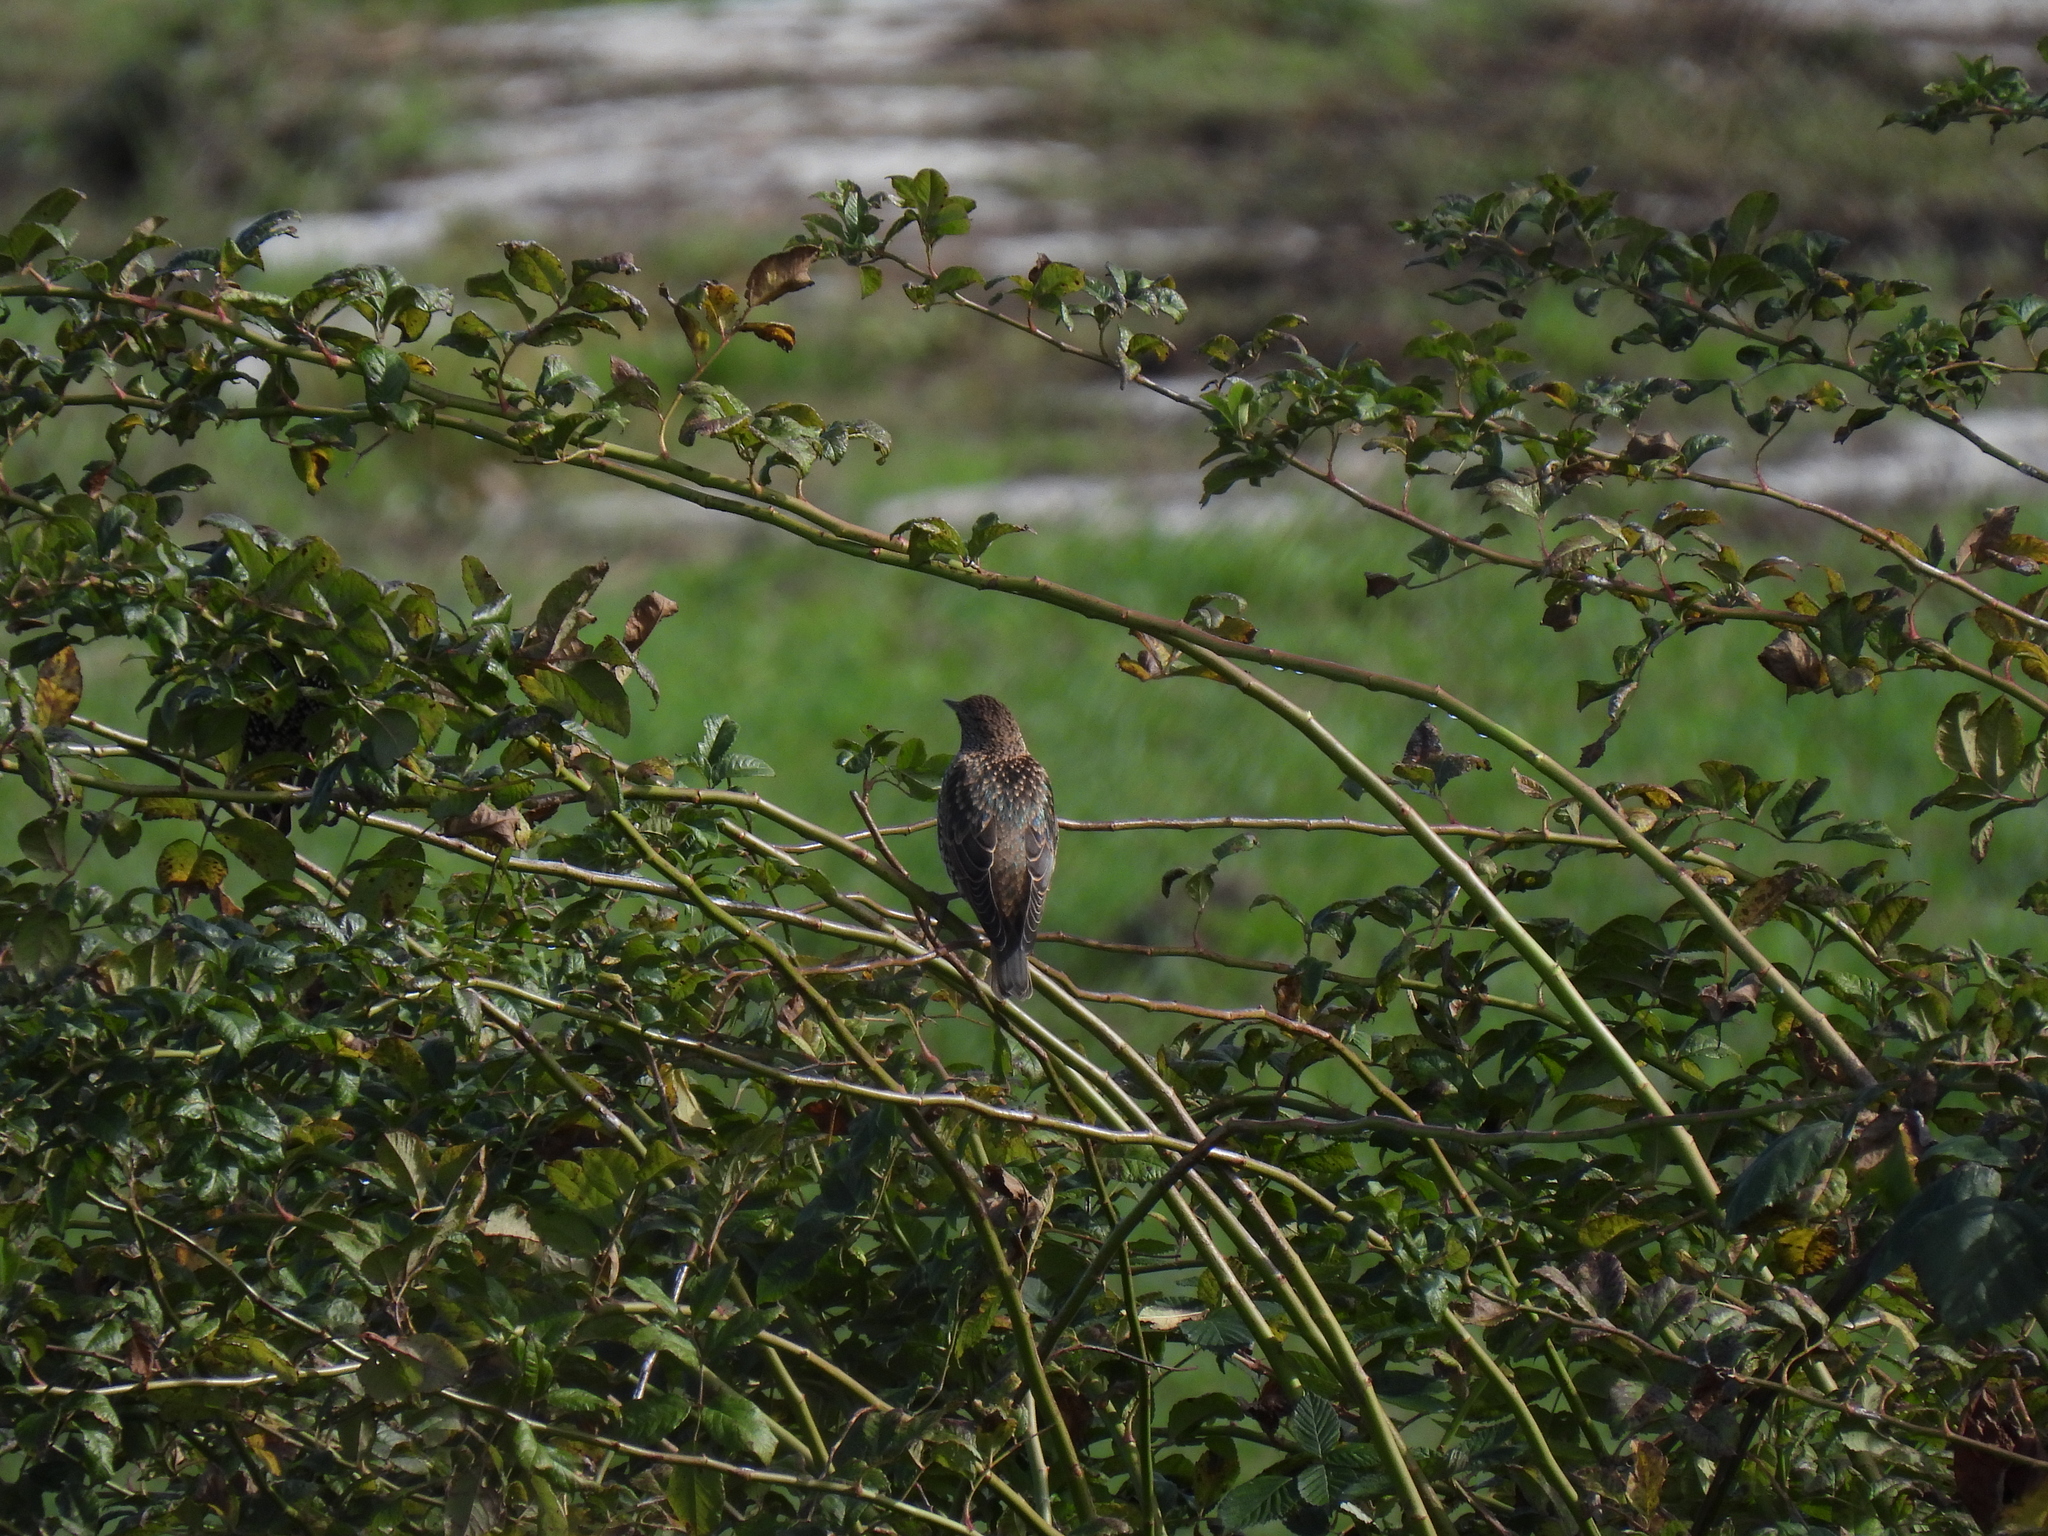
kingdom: Animalia
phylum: Chordata
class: Aves
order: Passeriformes
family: Sturnidae
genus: Sturnus
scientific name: Sturnus vulgaris
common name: Common starling
